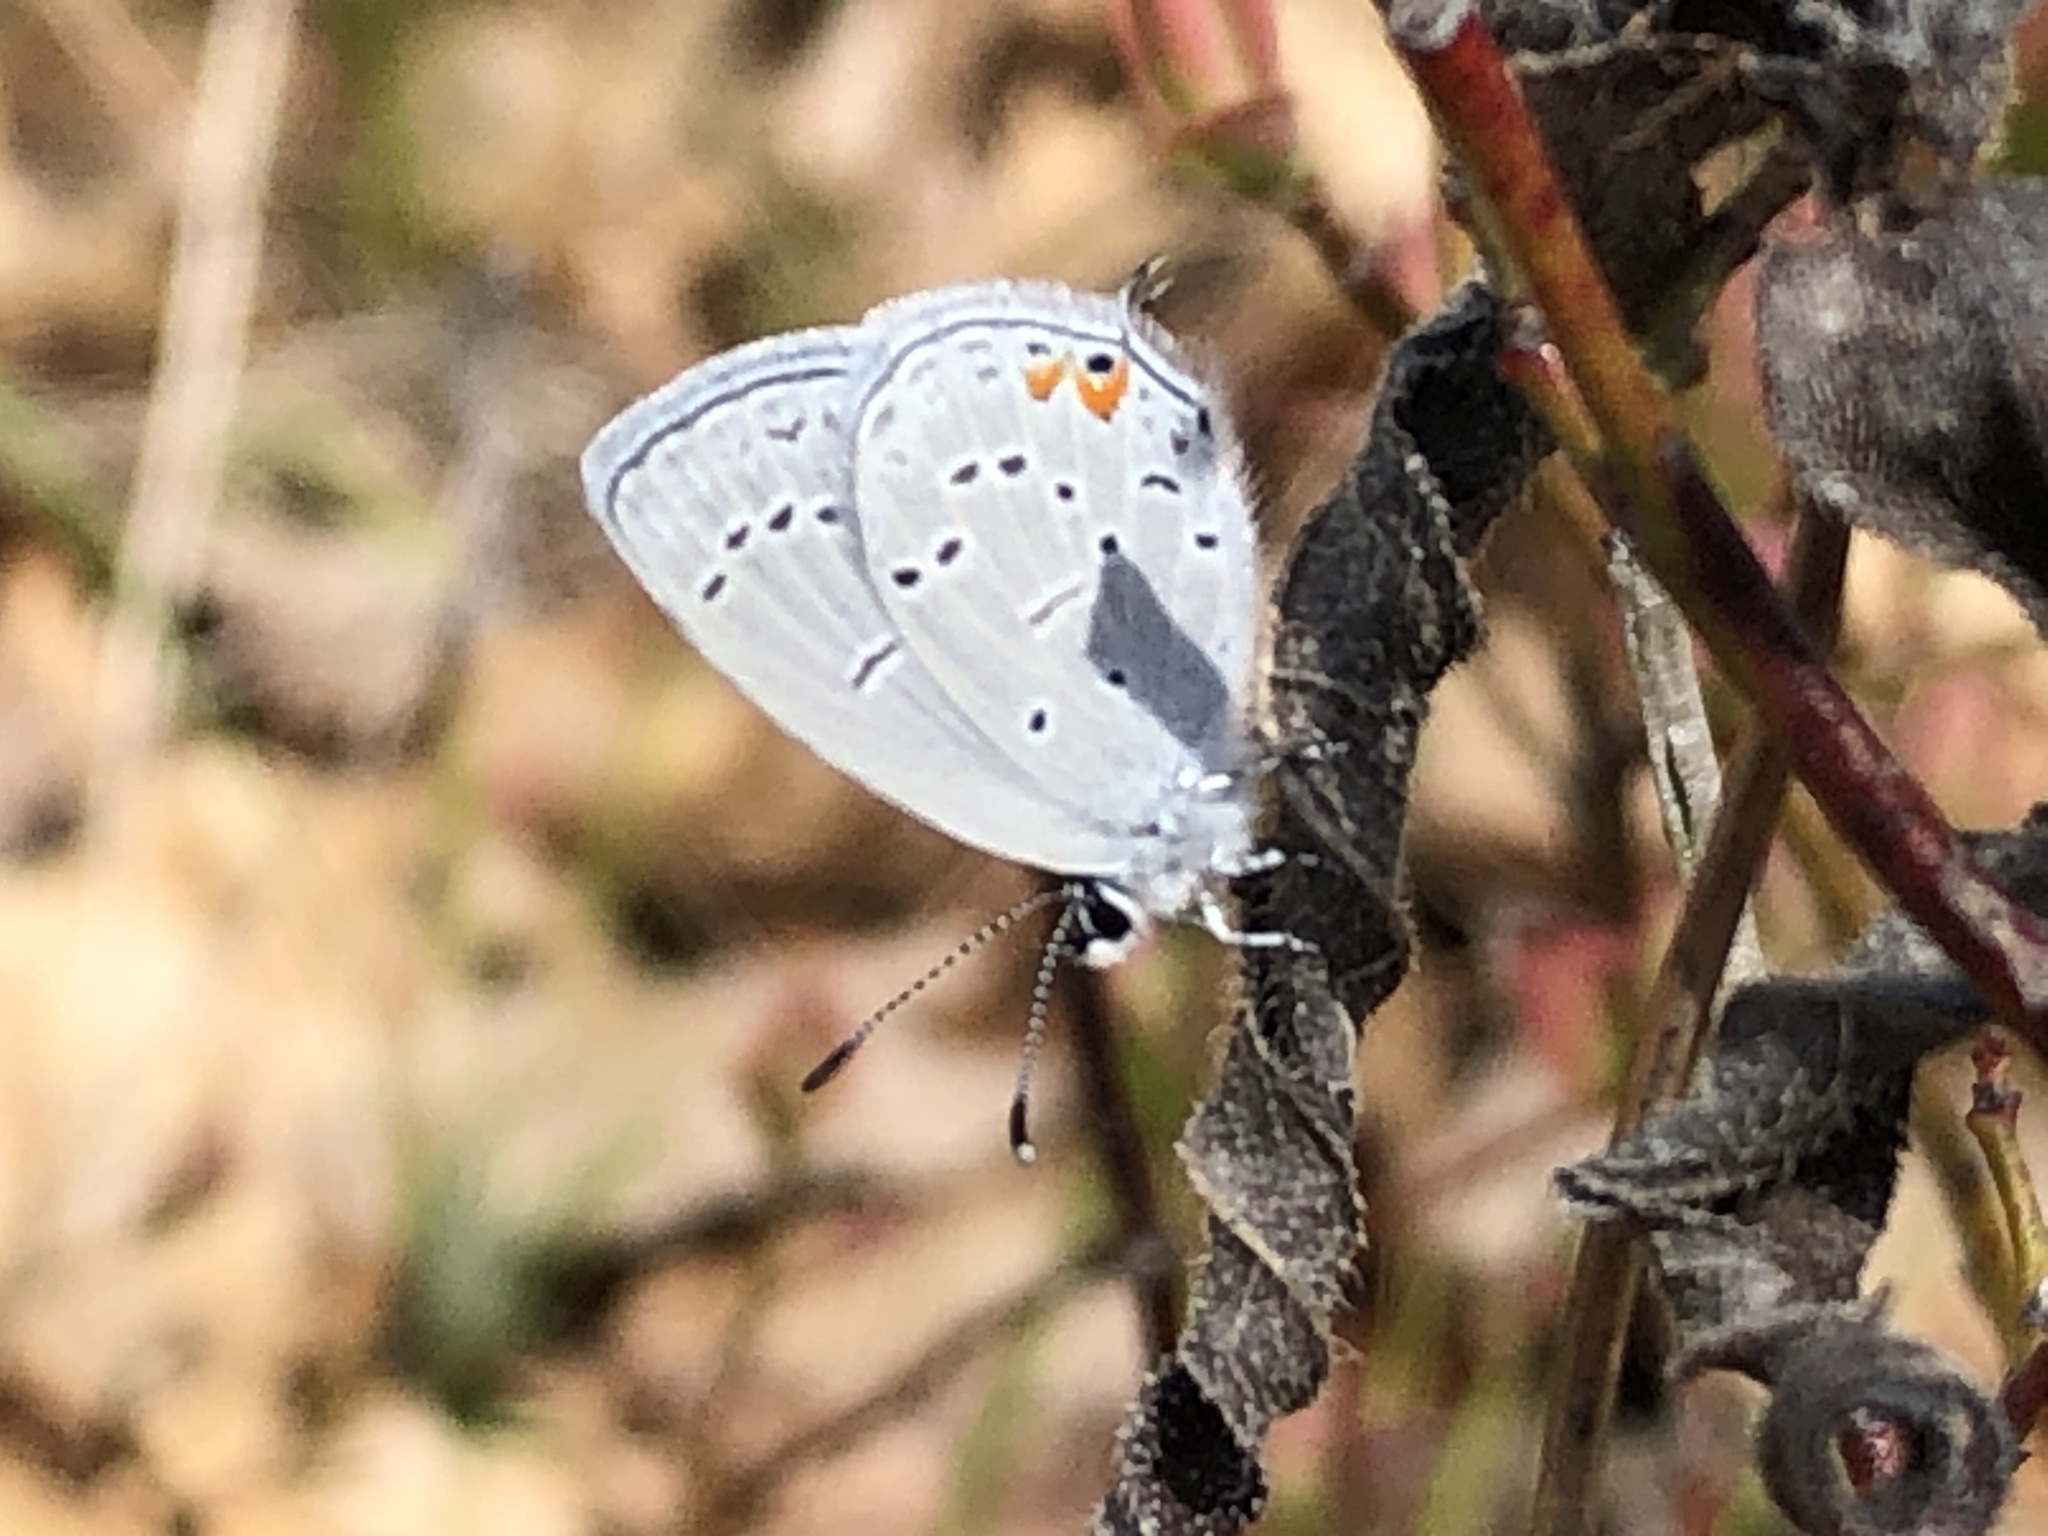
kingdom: Animalia
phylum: Arthropoda
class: Insecta
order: Lepidoptera
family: Lycaenidae
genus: Elkalyce
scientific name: Elkalyce comyntas
